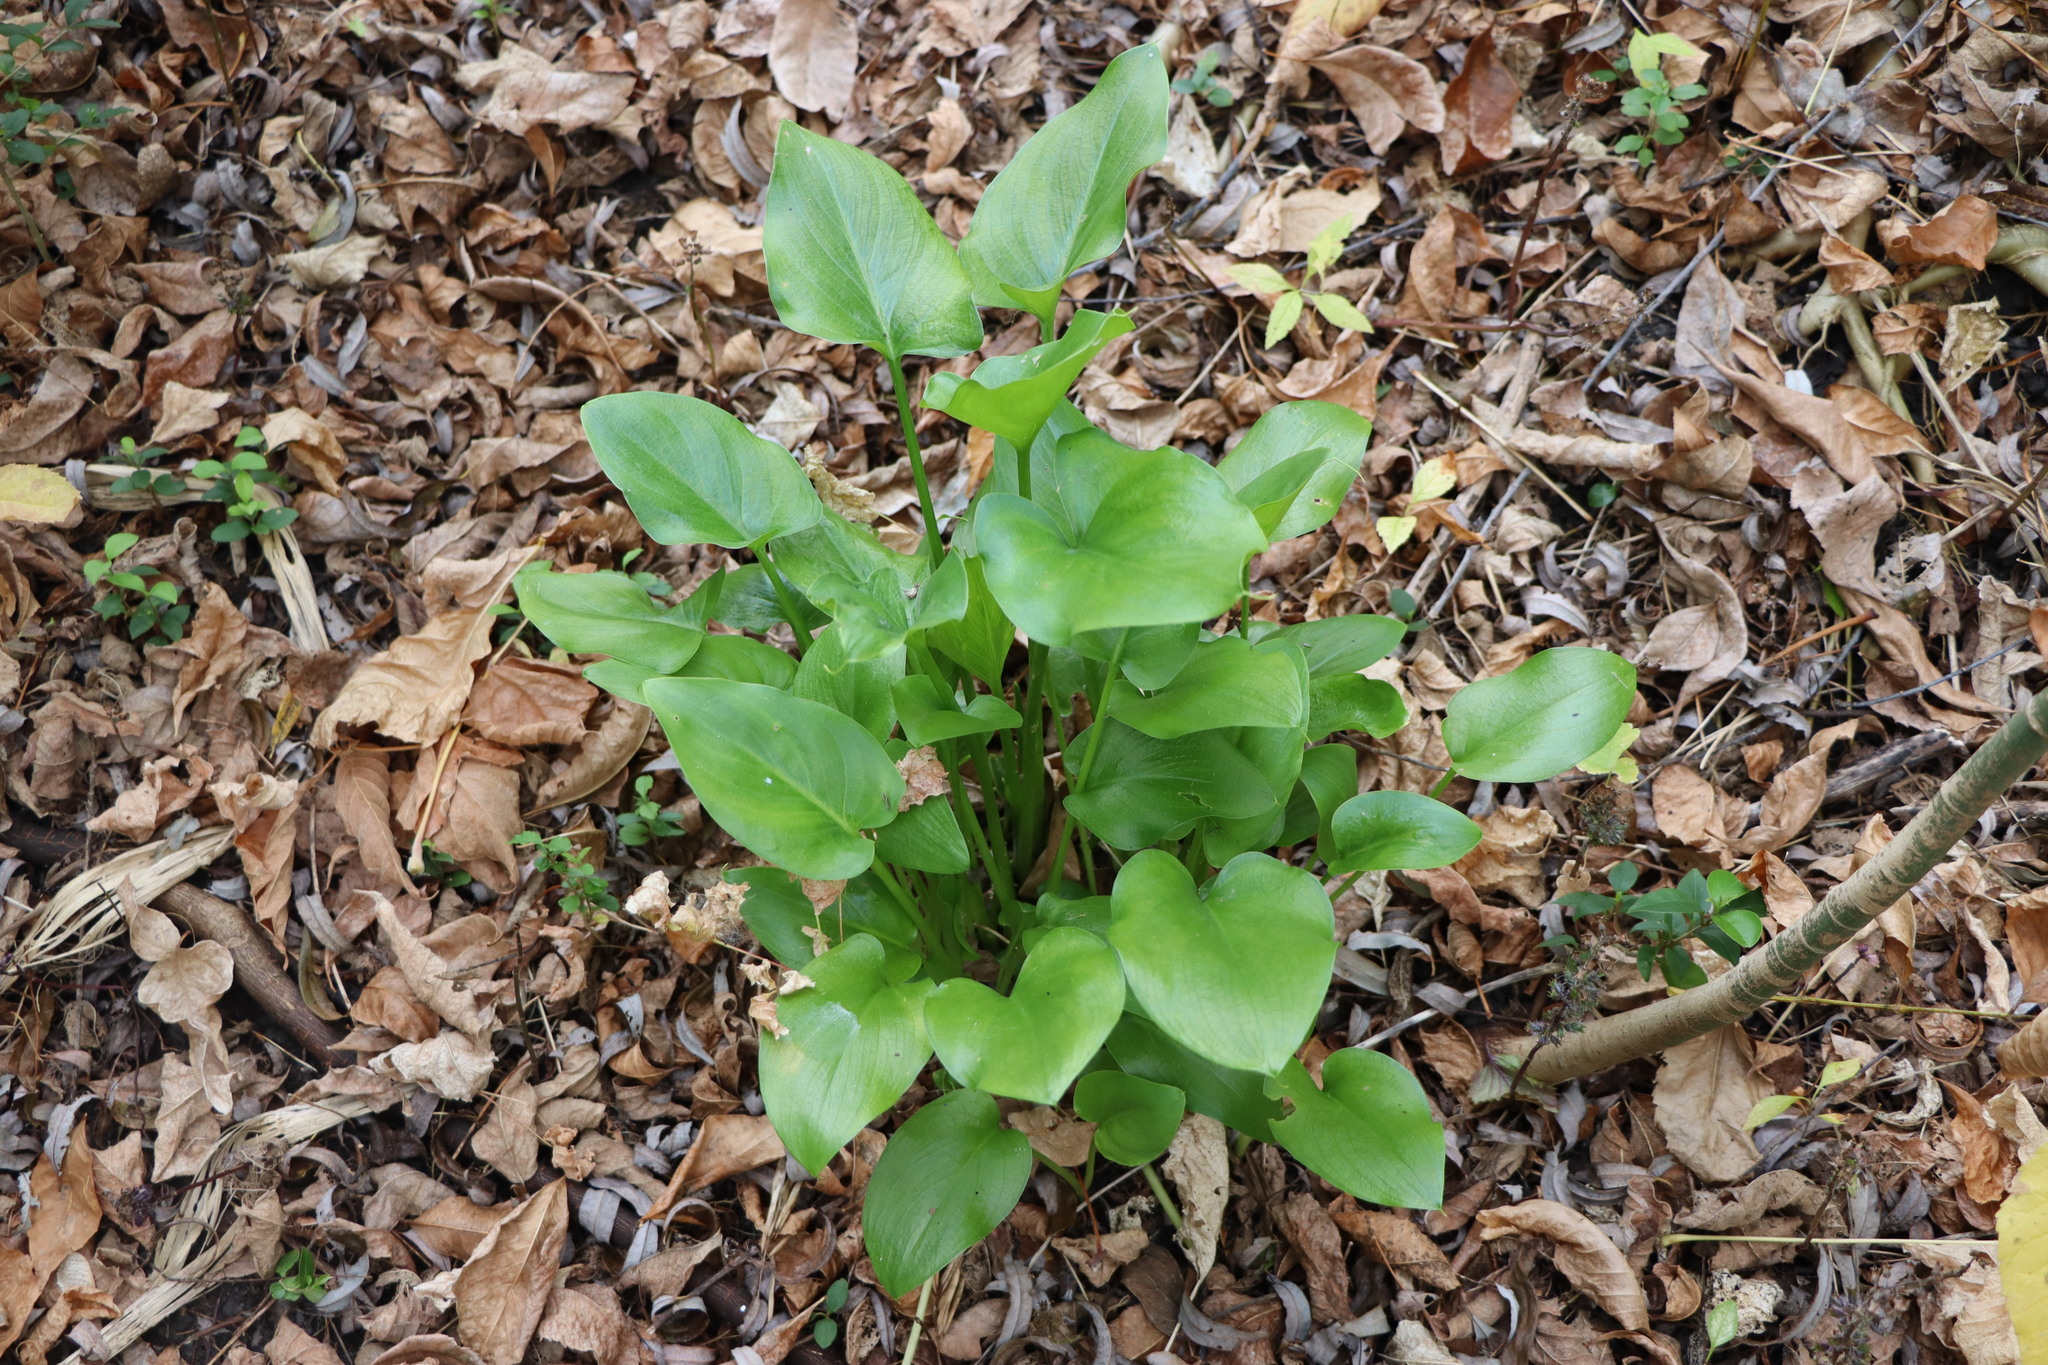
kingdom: Plantae
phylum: Tracheophyta
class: Liliopsida
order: Alismatales
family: Araceae
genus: Zantedeschia
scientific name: Zantedeschia aethiopica
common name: Altar-lily
